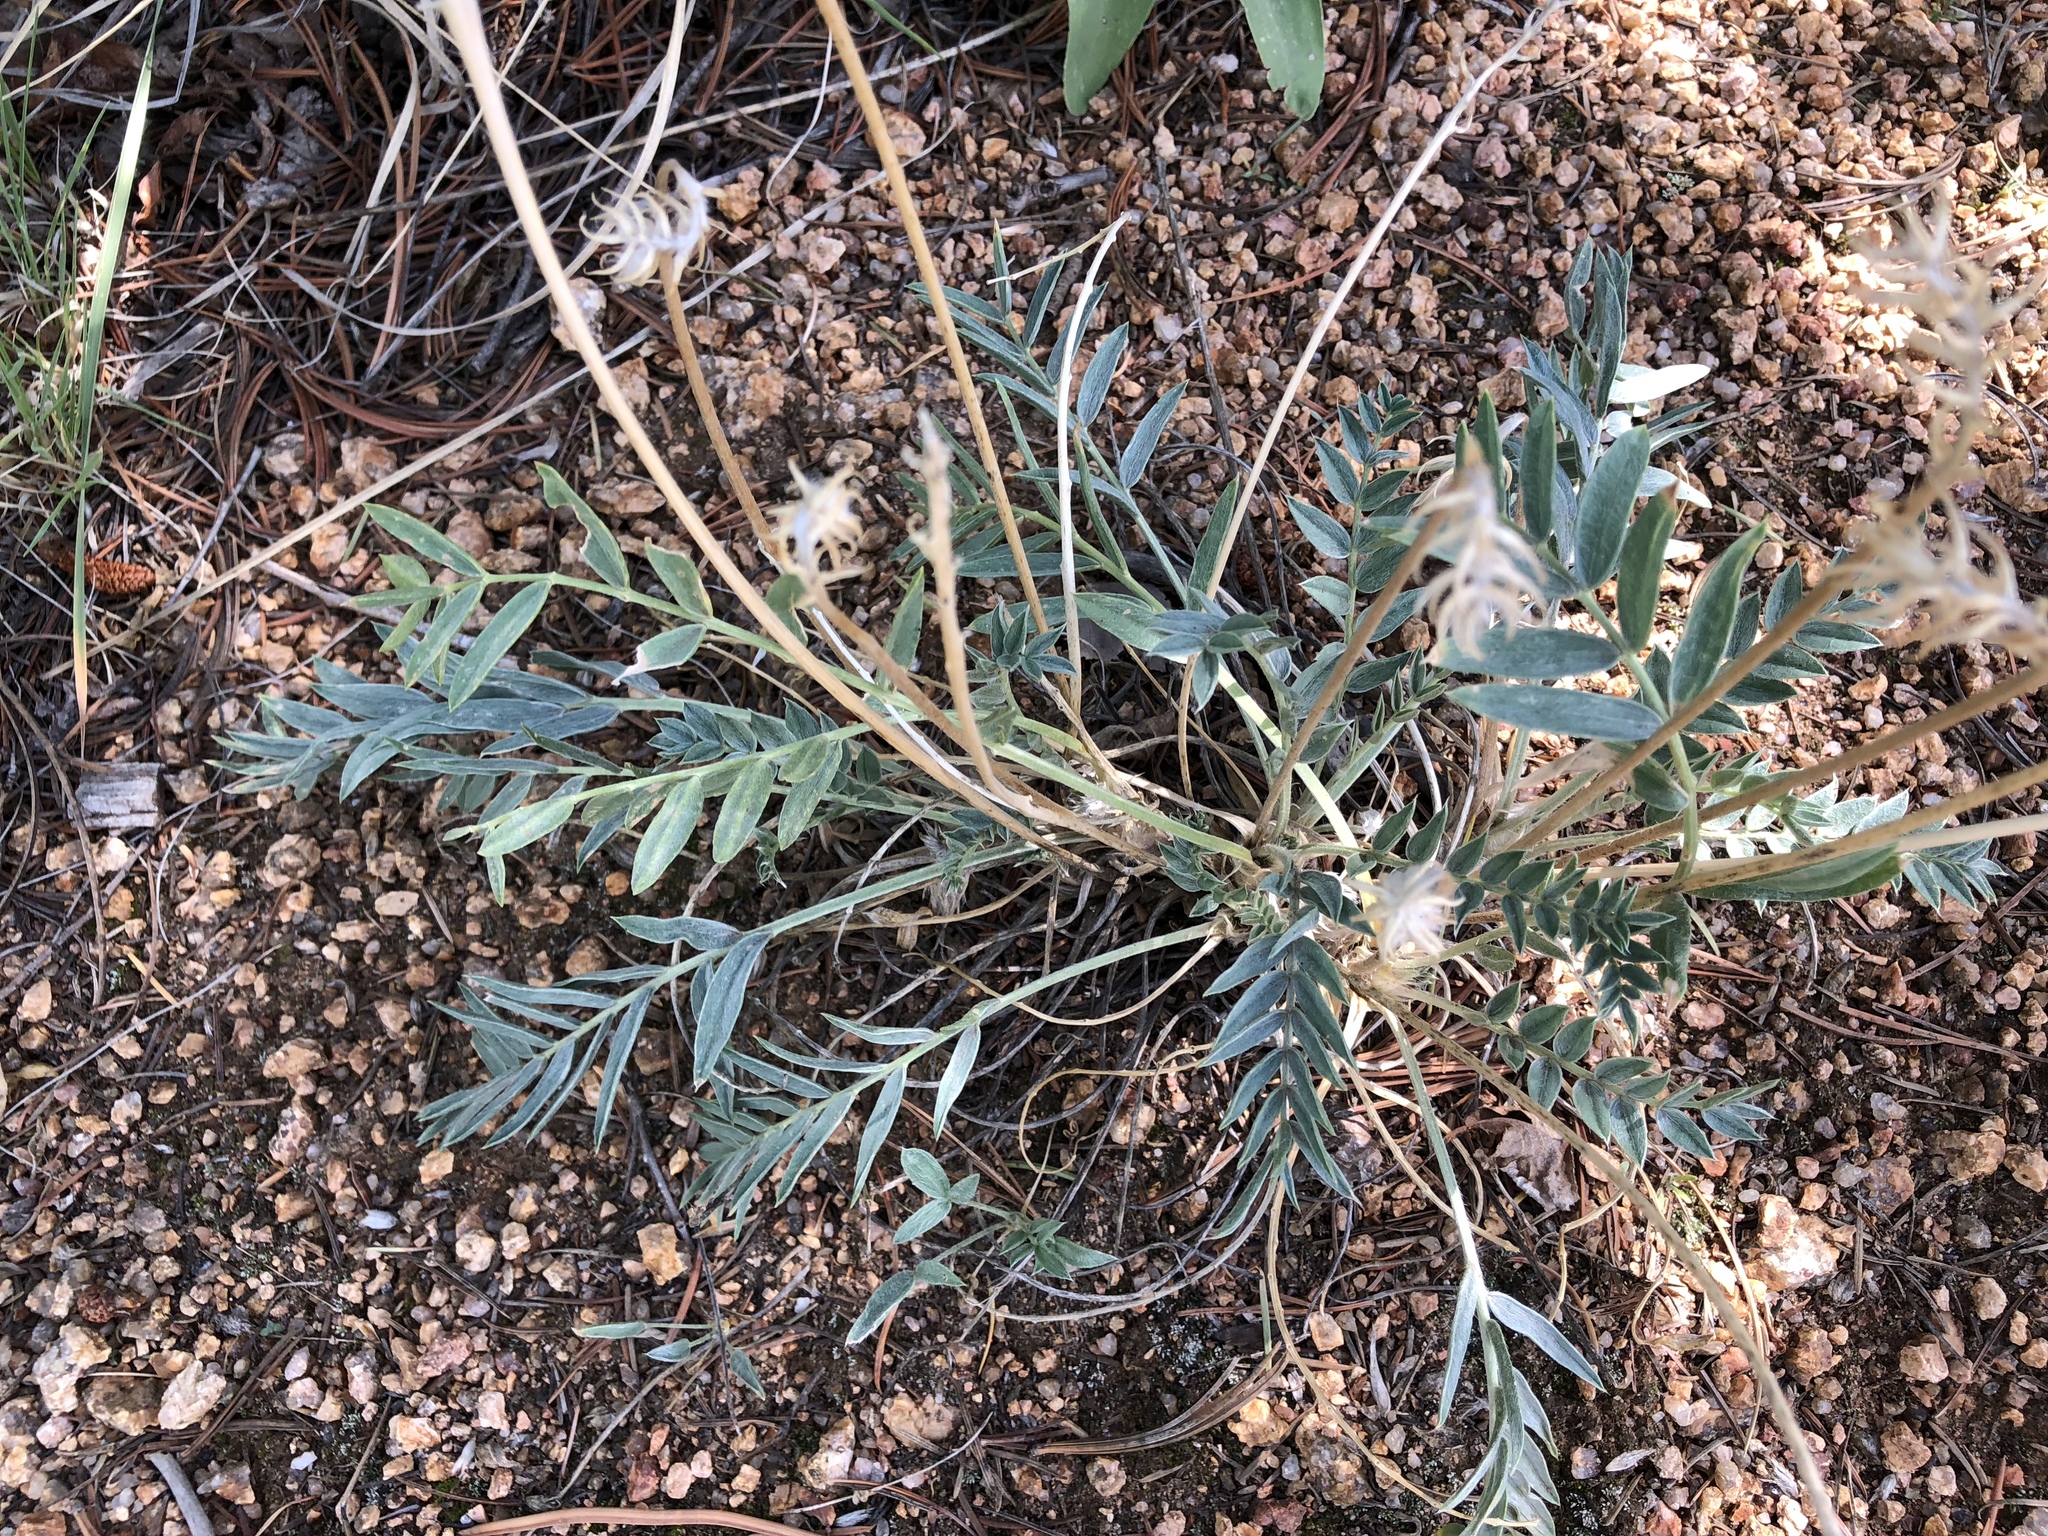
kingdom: Plantae
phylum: Tracheophyta
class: Magnoliopsida
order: Fabales
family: Fabaceae
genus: Oxytropis
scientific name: Oxytropis lambertii
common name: Purple locoweed
